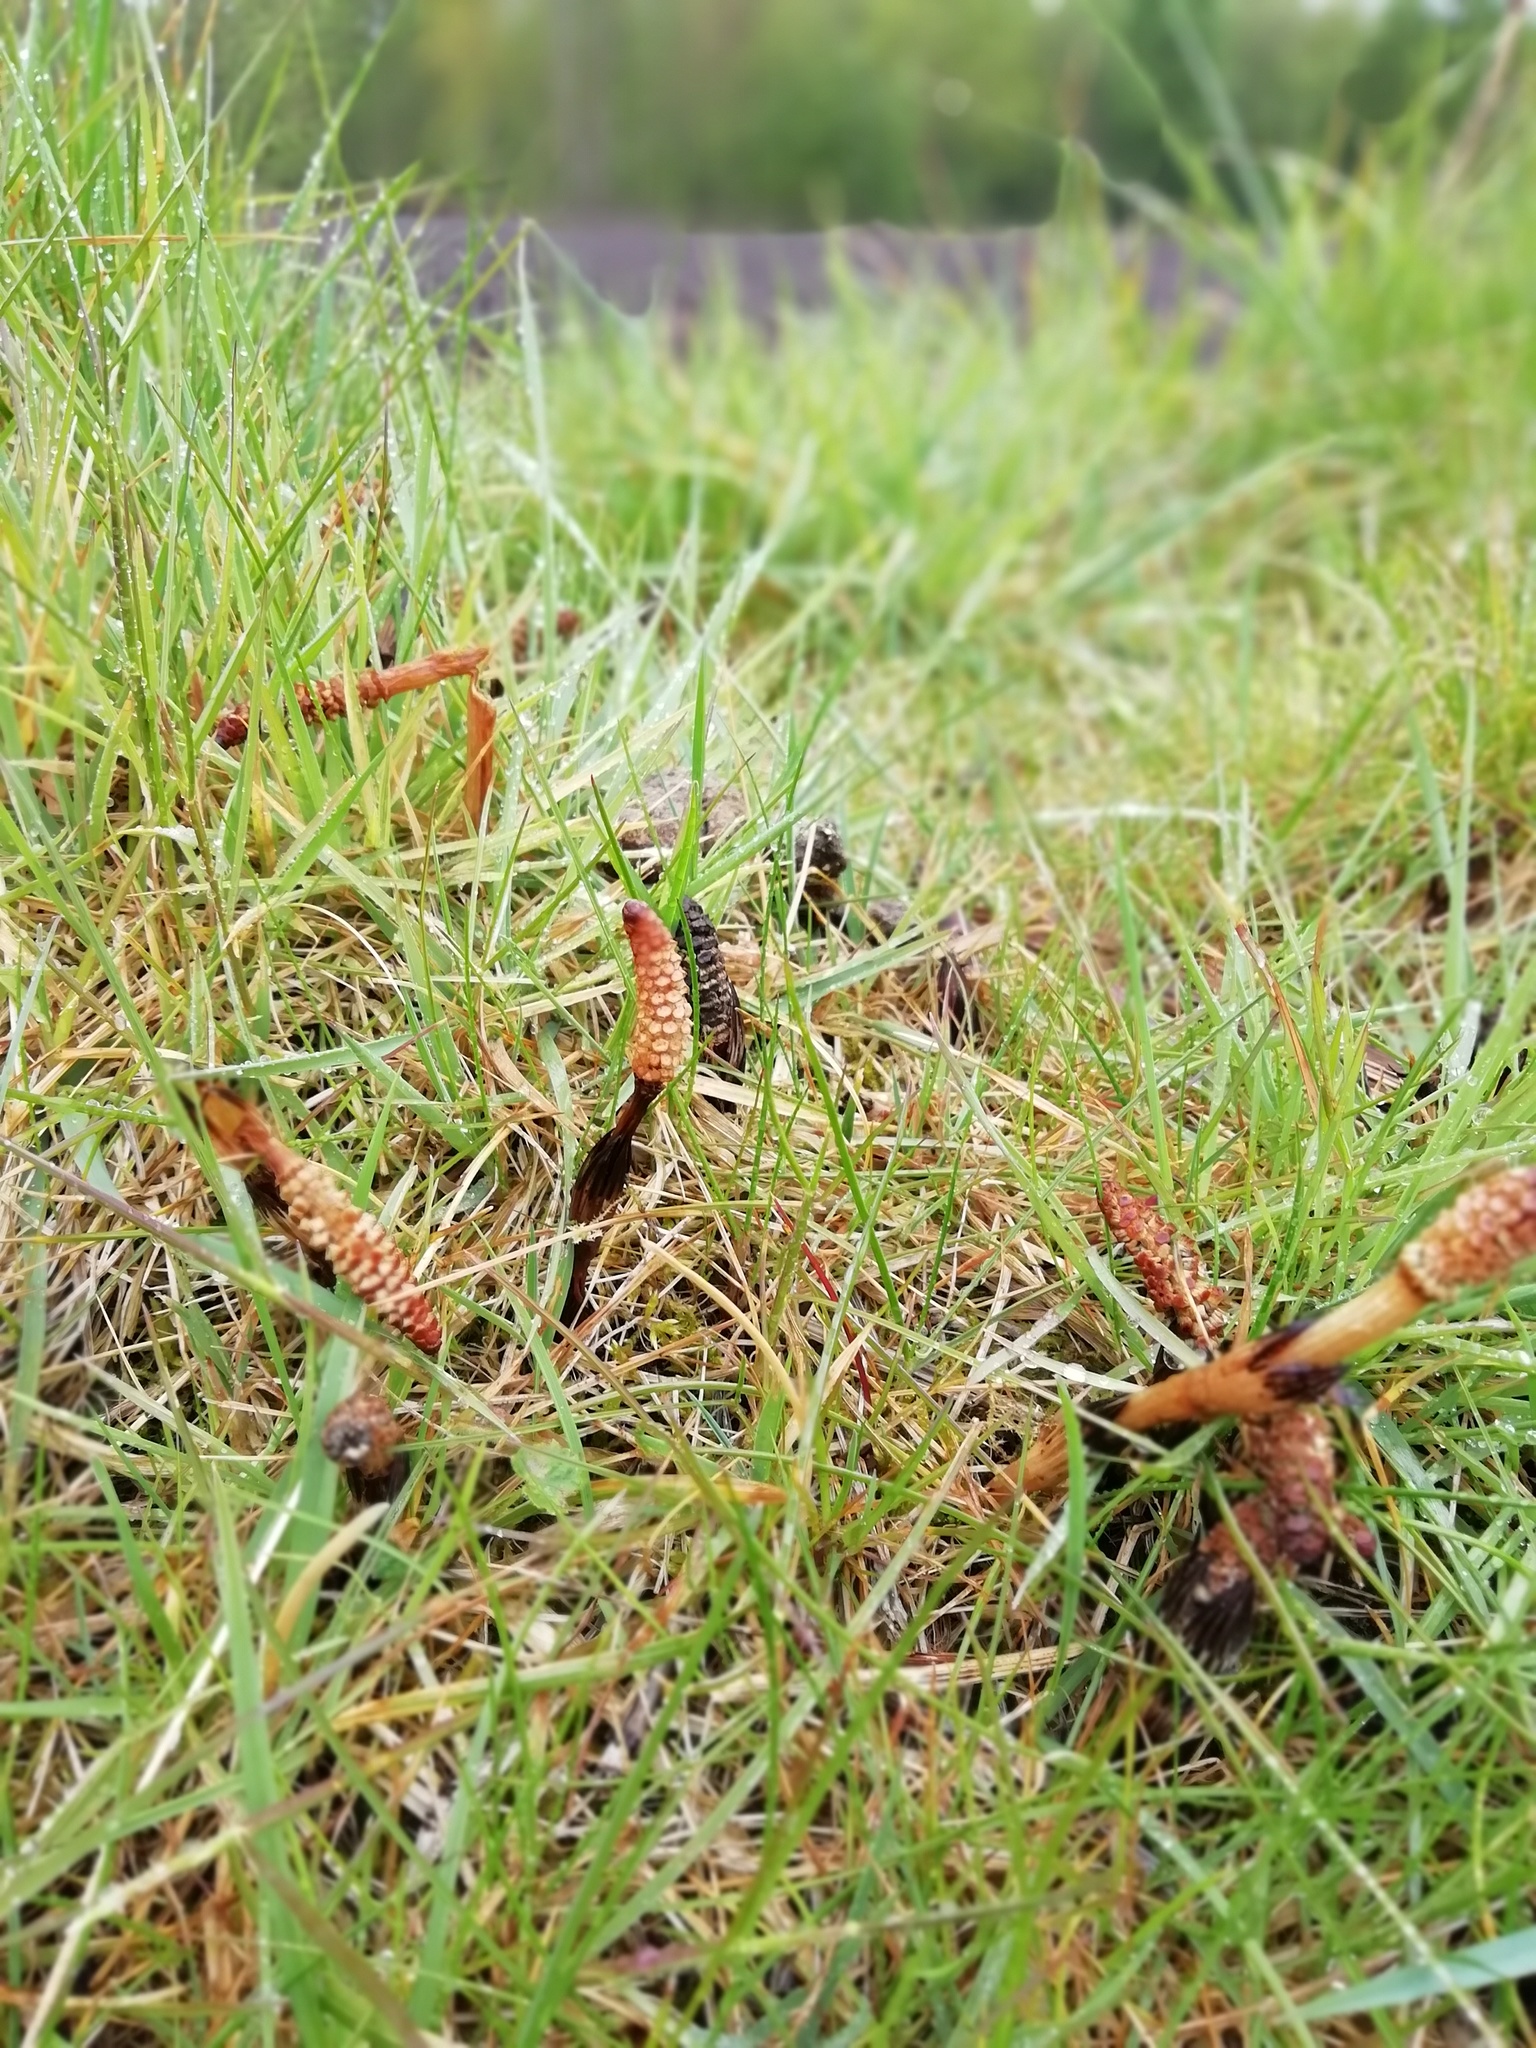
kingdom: Plantae
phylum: Tracheophyta
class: Polypodiopsida
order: Equisetales
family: Equisetaceae
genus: Equisetum
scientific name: Equisetum arvense
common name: Field horsetail
